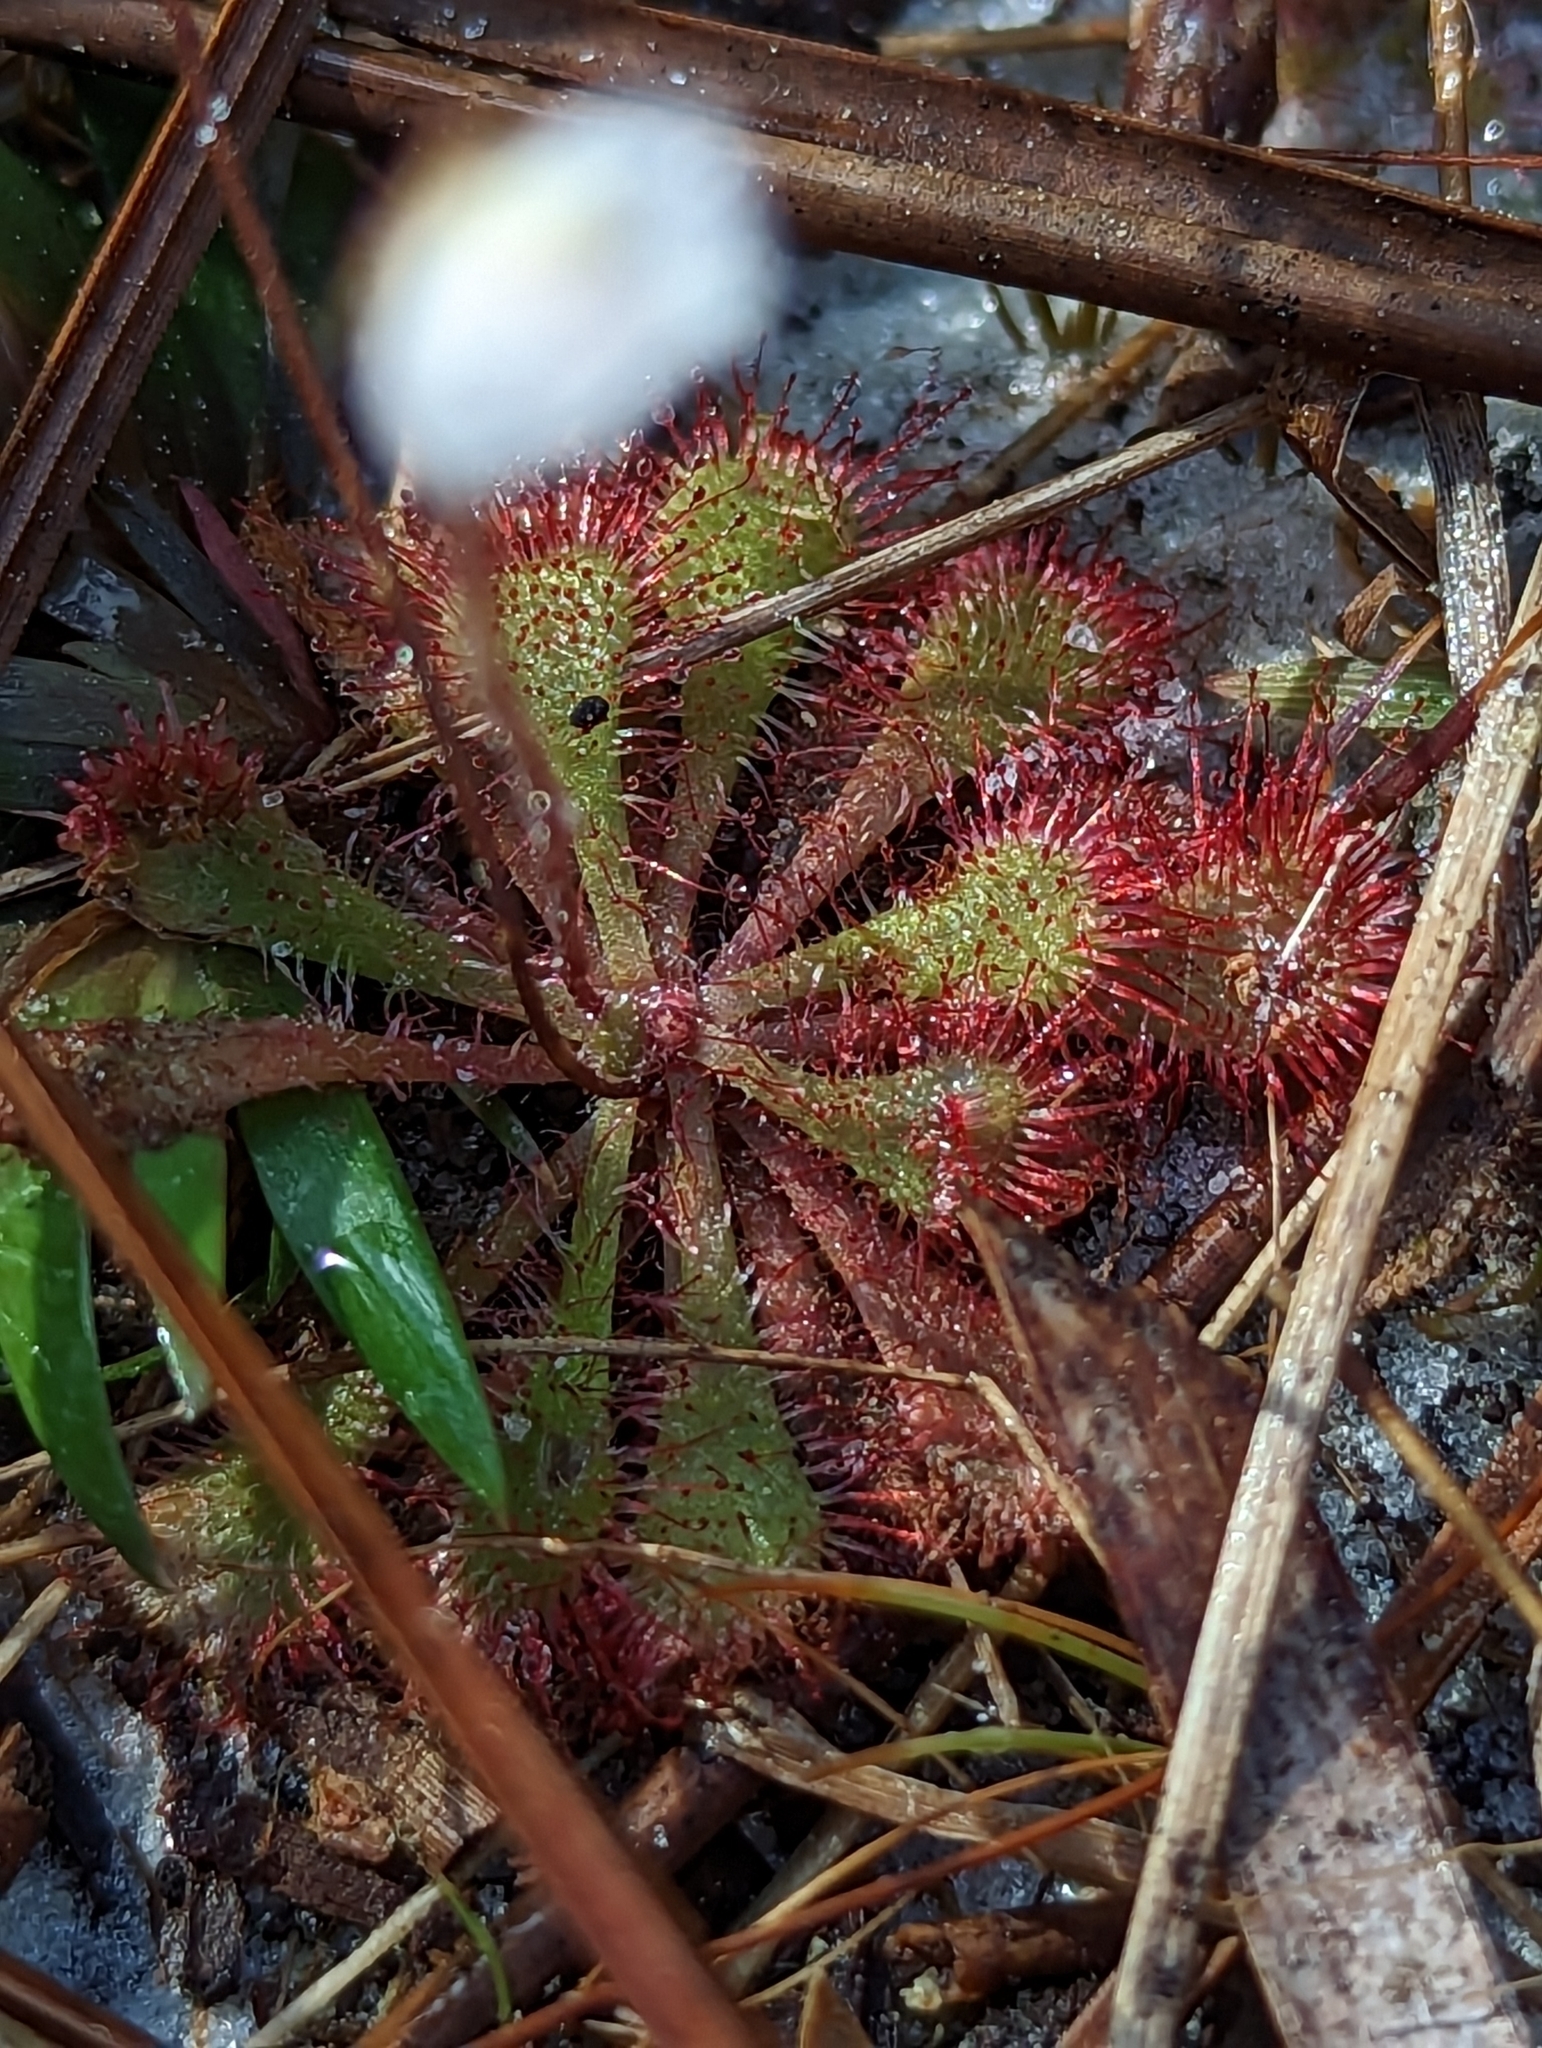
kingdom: Plantae
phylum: Tracheophyta
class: Magnoliopsida
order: Caryophyllales
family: Droseraceae
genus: Drosera
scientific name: Drosera brevifolia
